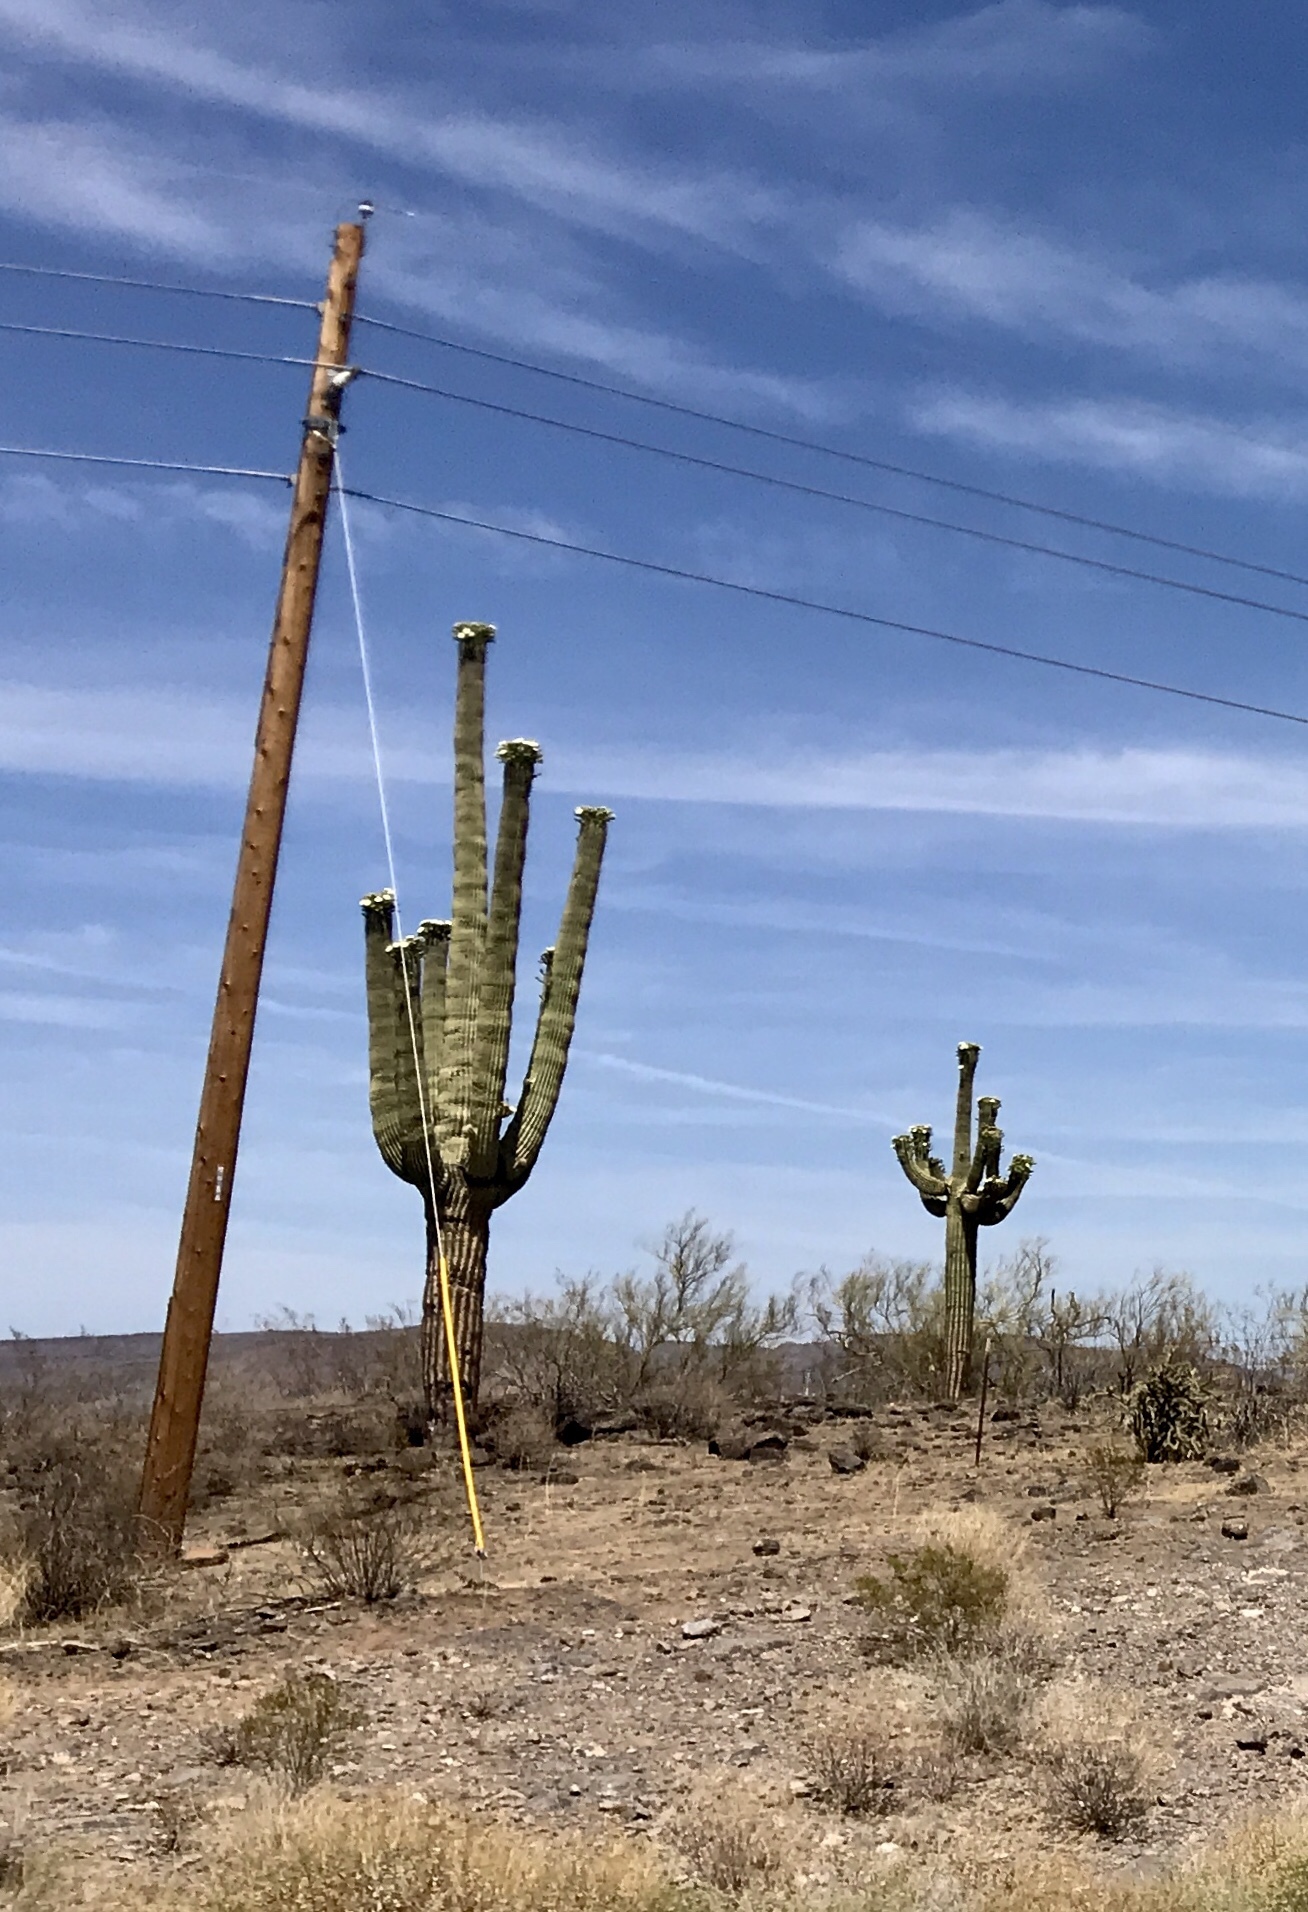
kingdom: Plantae
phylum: Tracheophyta
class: Magnoliopsida
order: Caryophyllales
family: Cactaceae
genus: Carnegiea
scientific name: Carnegiea gigantea
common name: Saguaro
